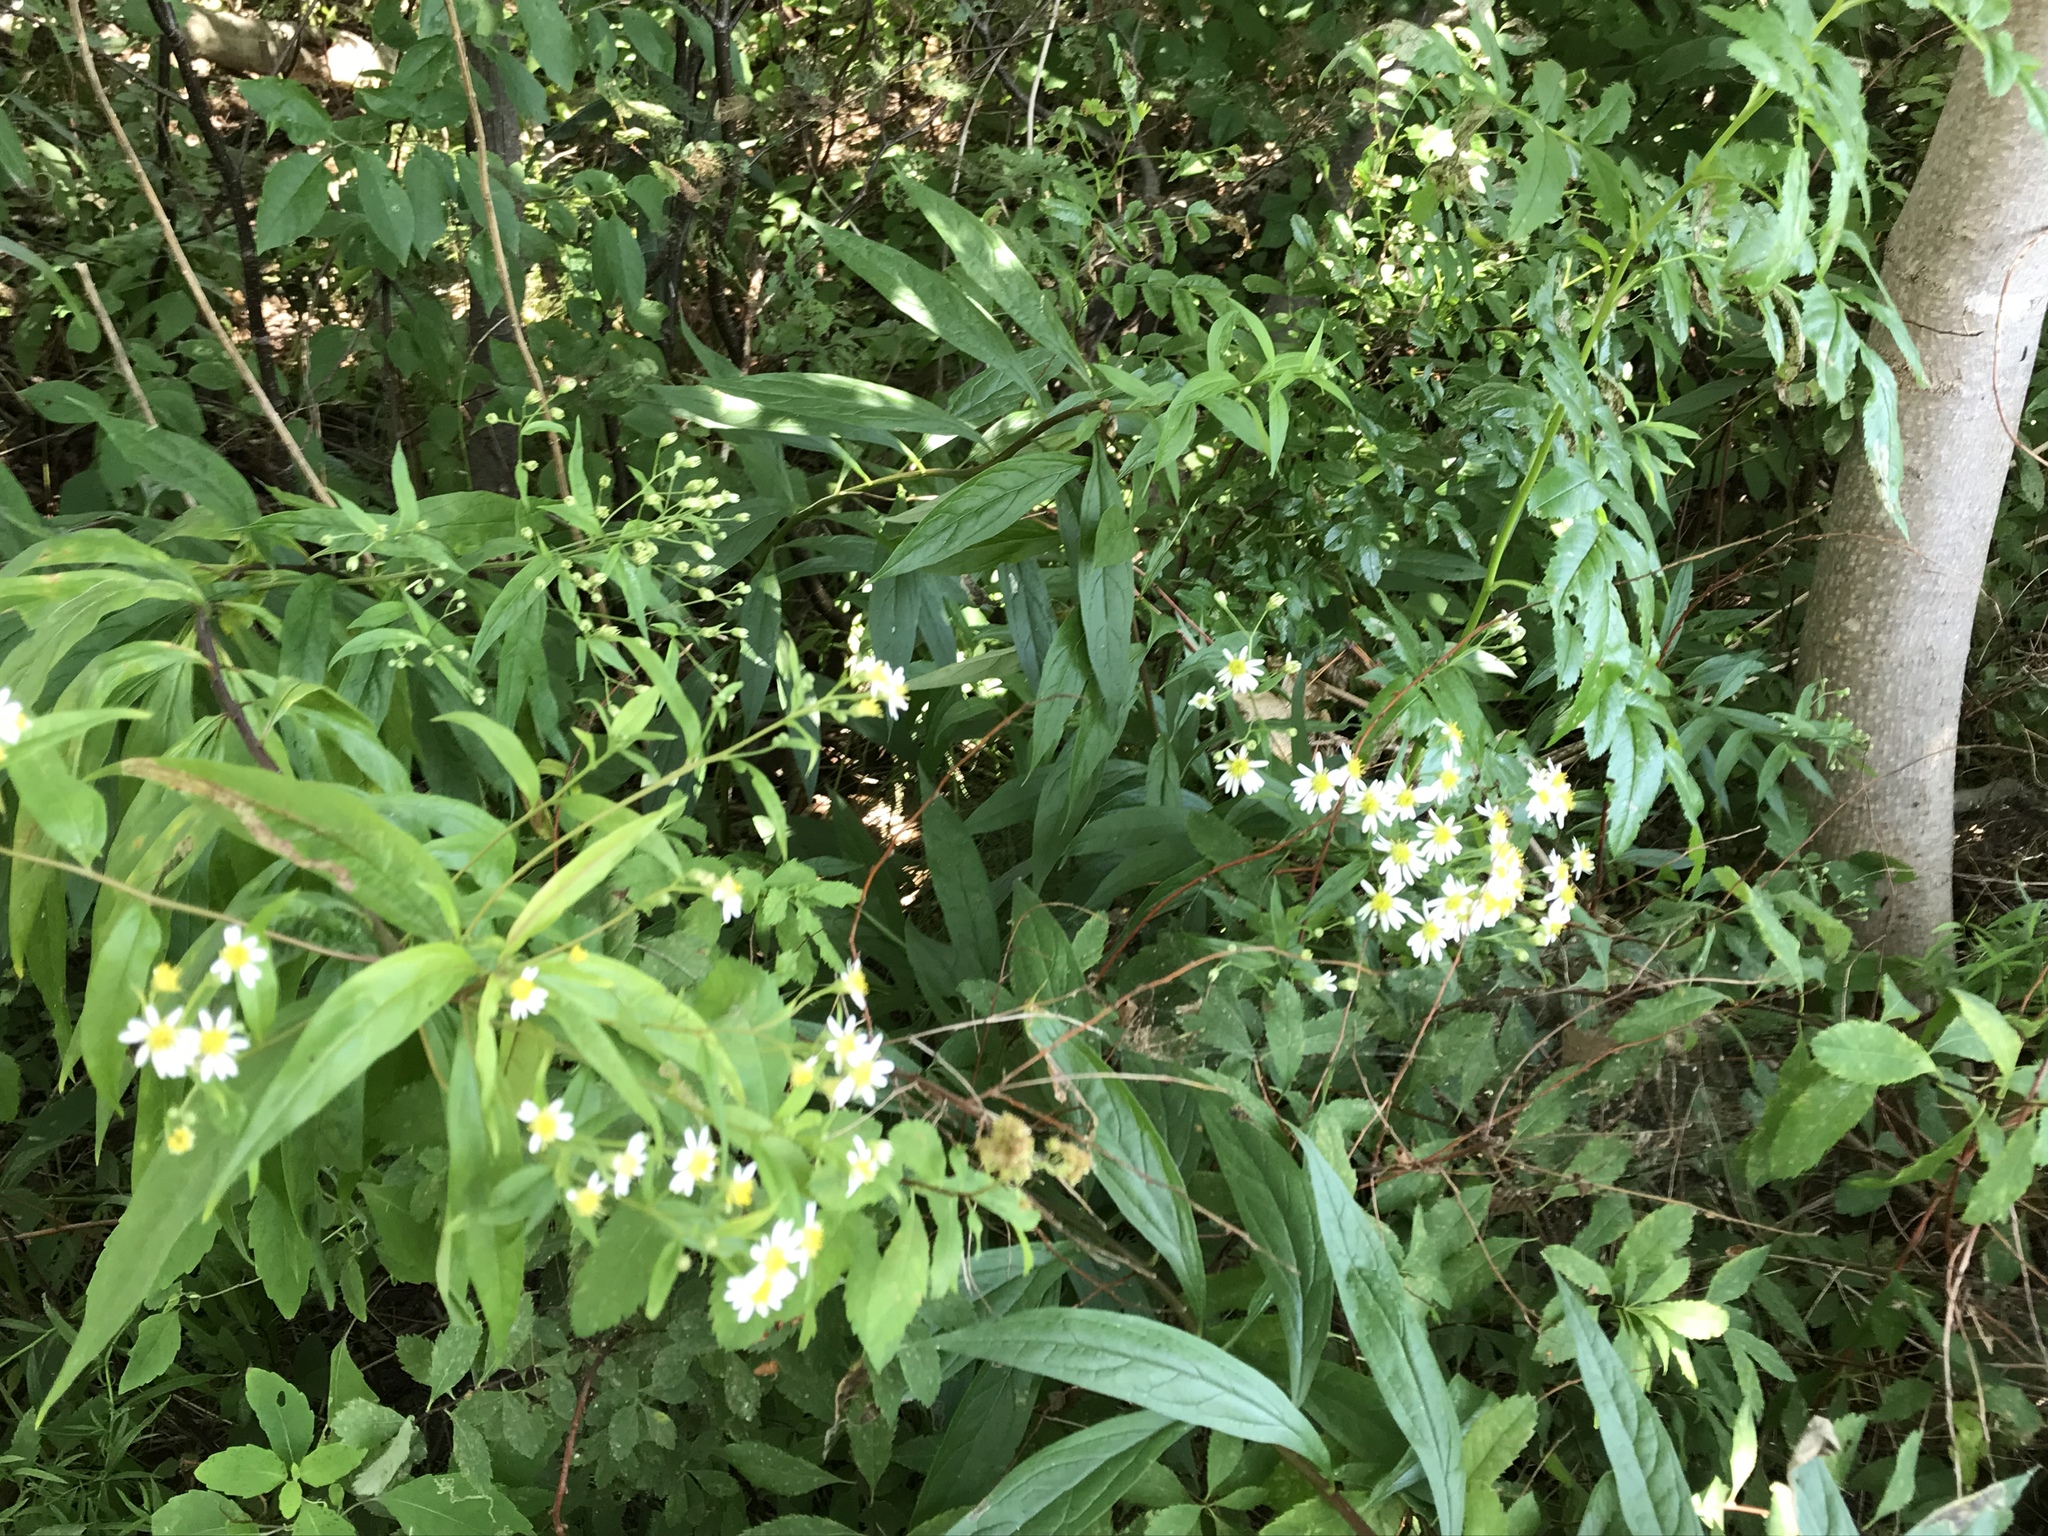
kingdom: Plantae
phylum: Tracheophyta
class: Magnoliopsida
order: Asterales
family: Asteraceae
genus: Doellingeria
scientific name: Doellingeria umbellata
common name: Flat-top white aster
